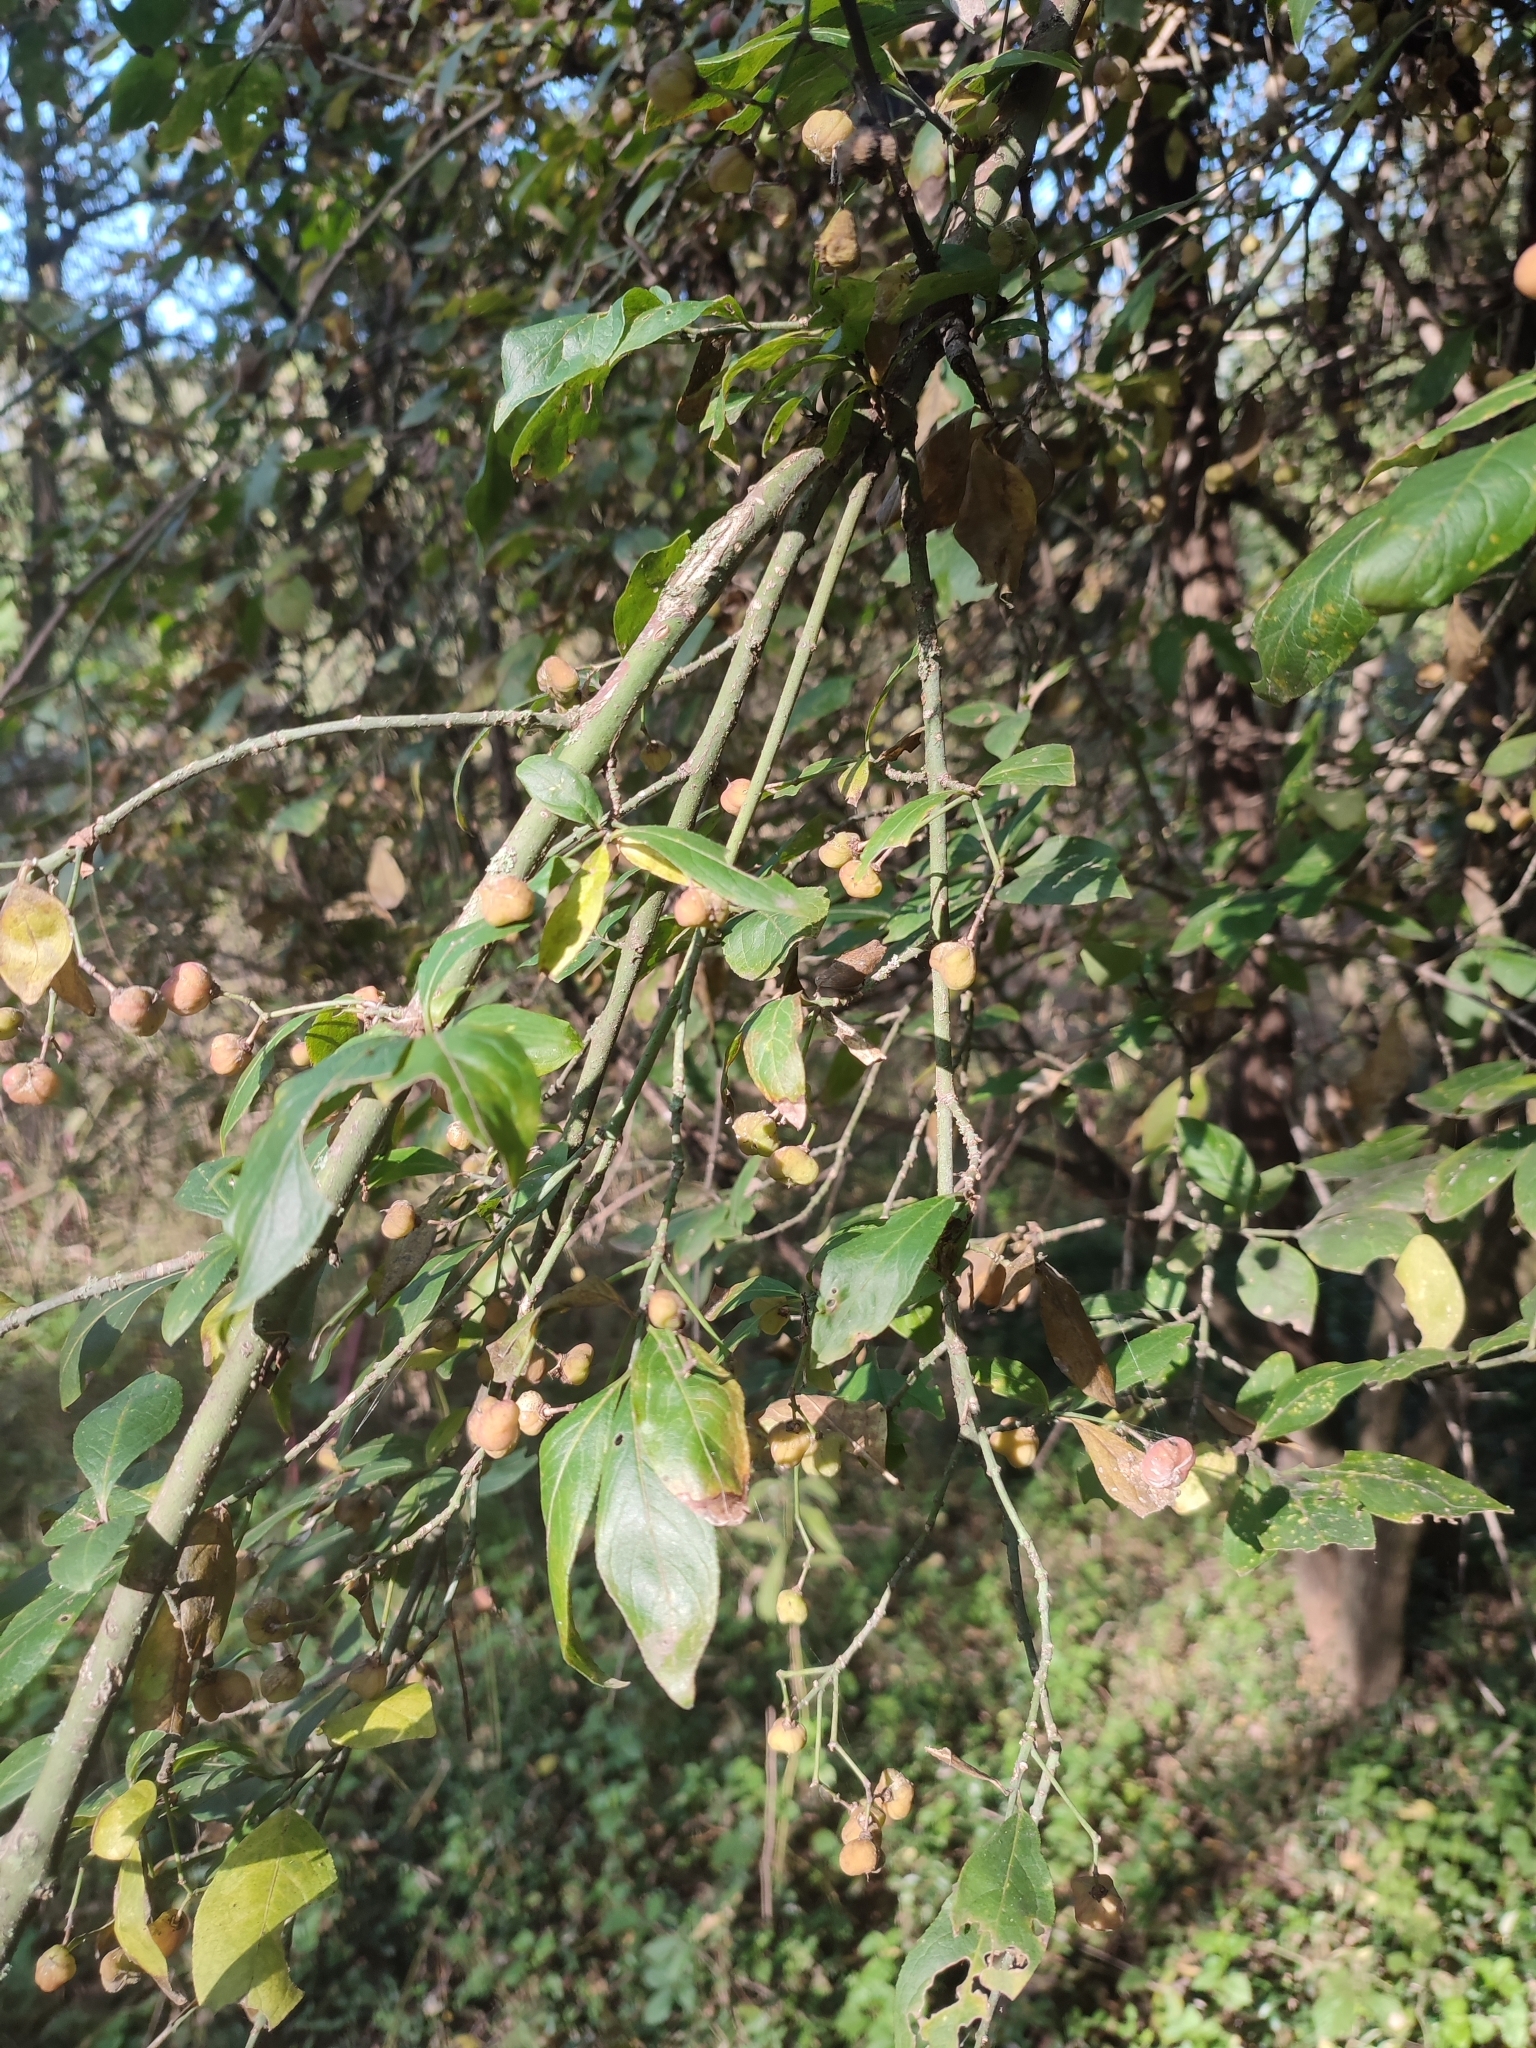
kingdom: Plantae
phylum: Tracheophyta
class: Magnoliopsida
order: Celastrales
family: Celastraceae
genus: Euonymus
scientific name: Euonymus europaeus
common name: Spindle
